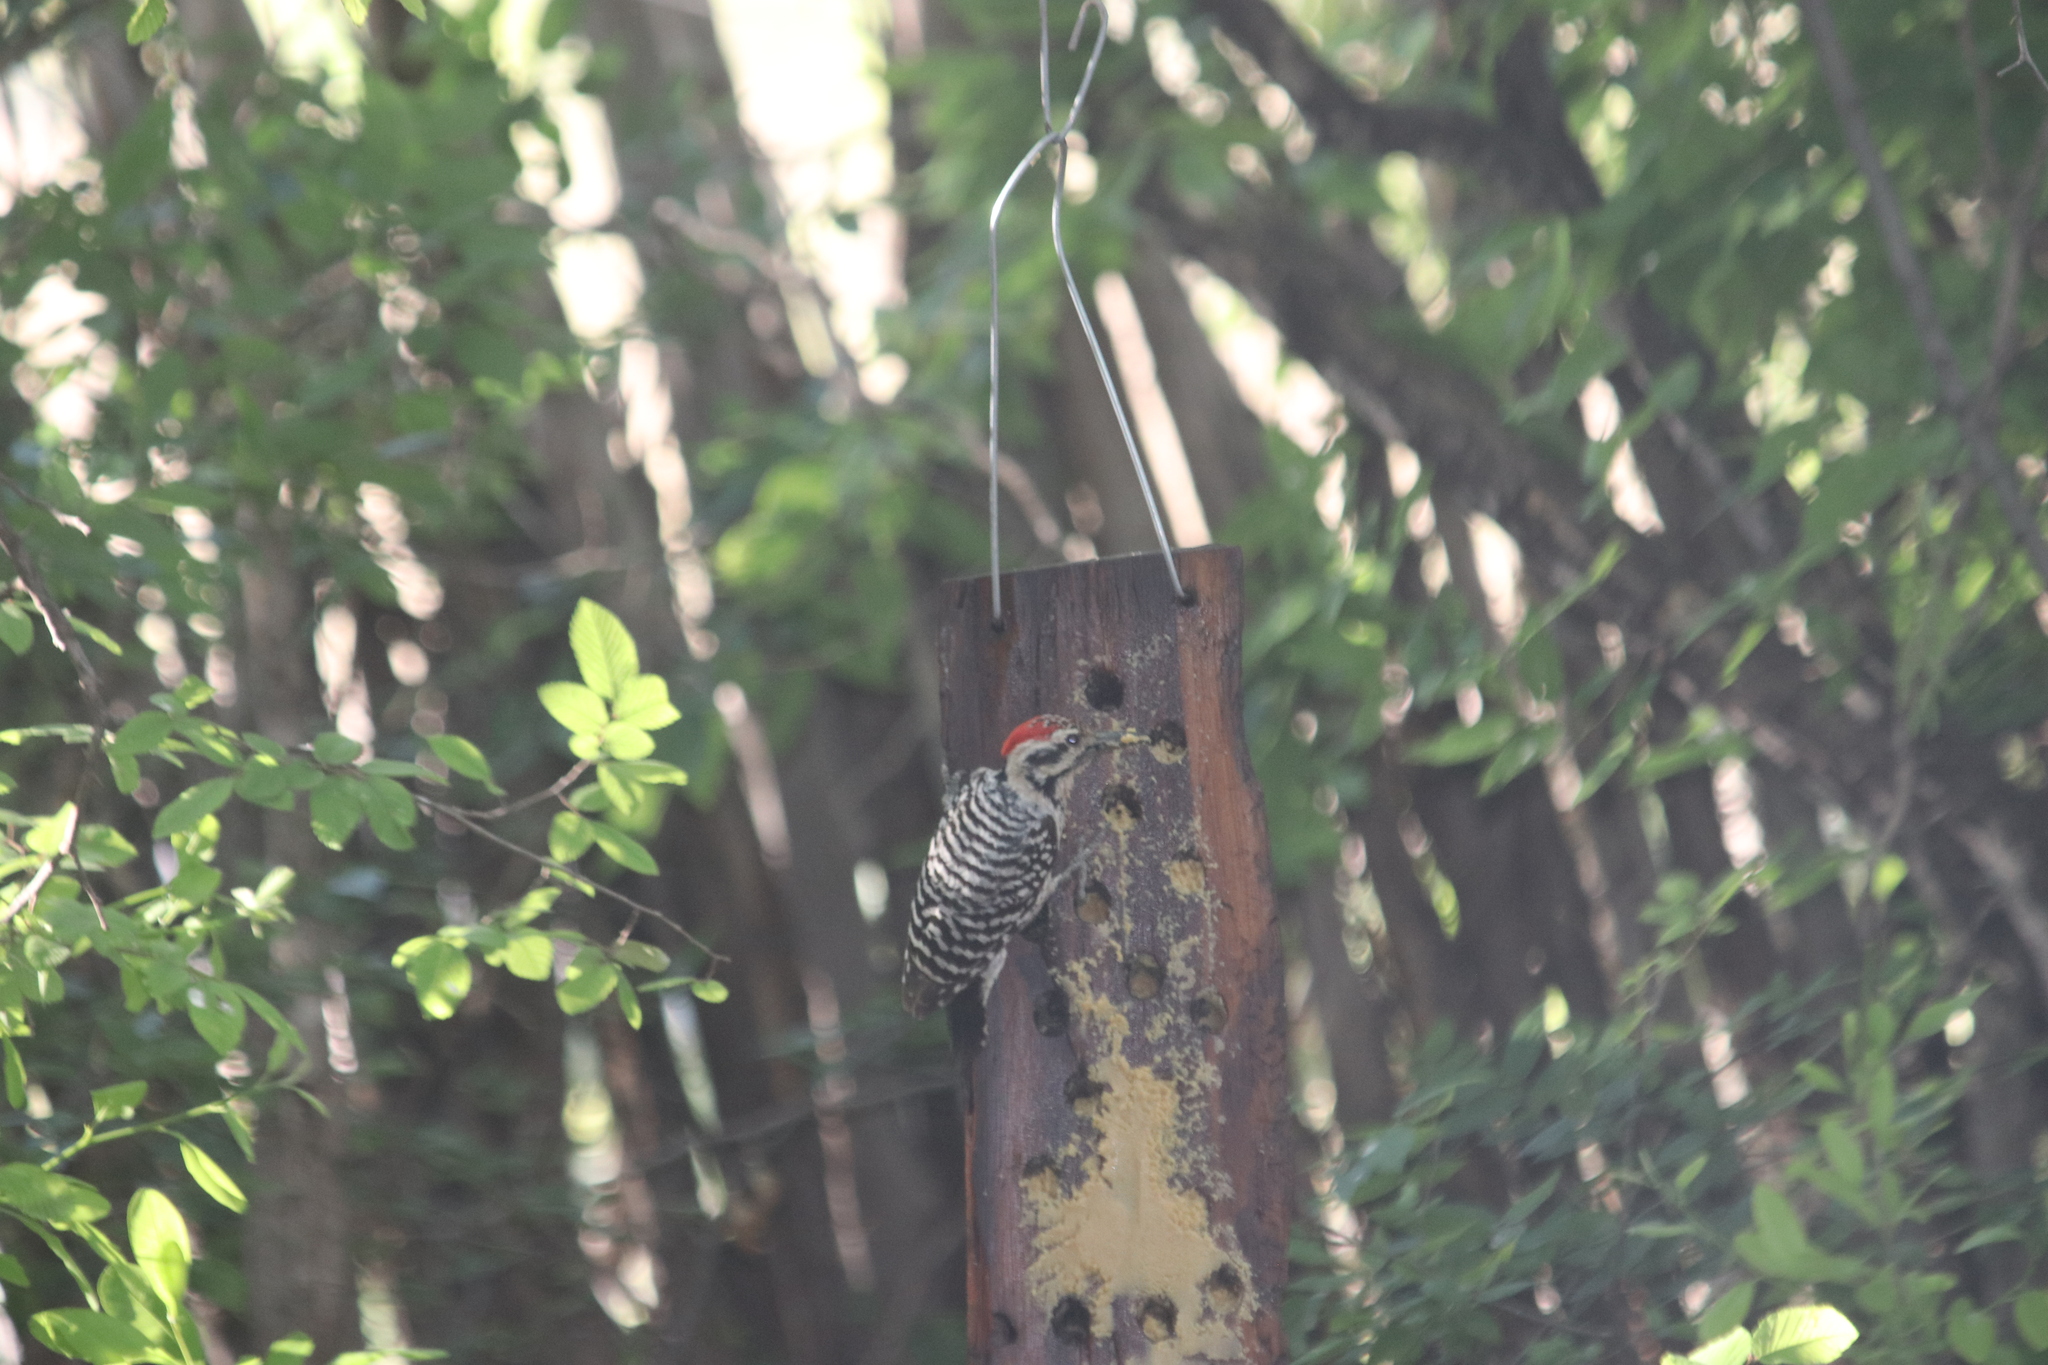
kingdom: Animalia
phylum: Chordata
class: Aves
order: Piciformes
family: Picidae
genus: Dryobates
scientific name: Dryobates scalaris
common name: Ladder-backed woodpecker
